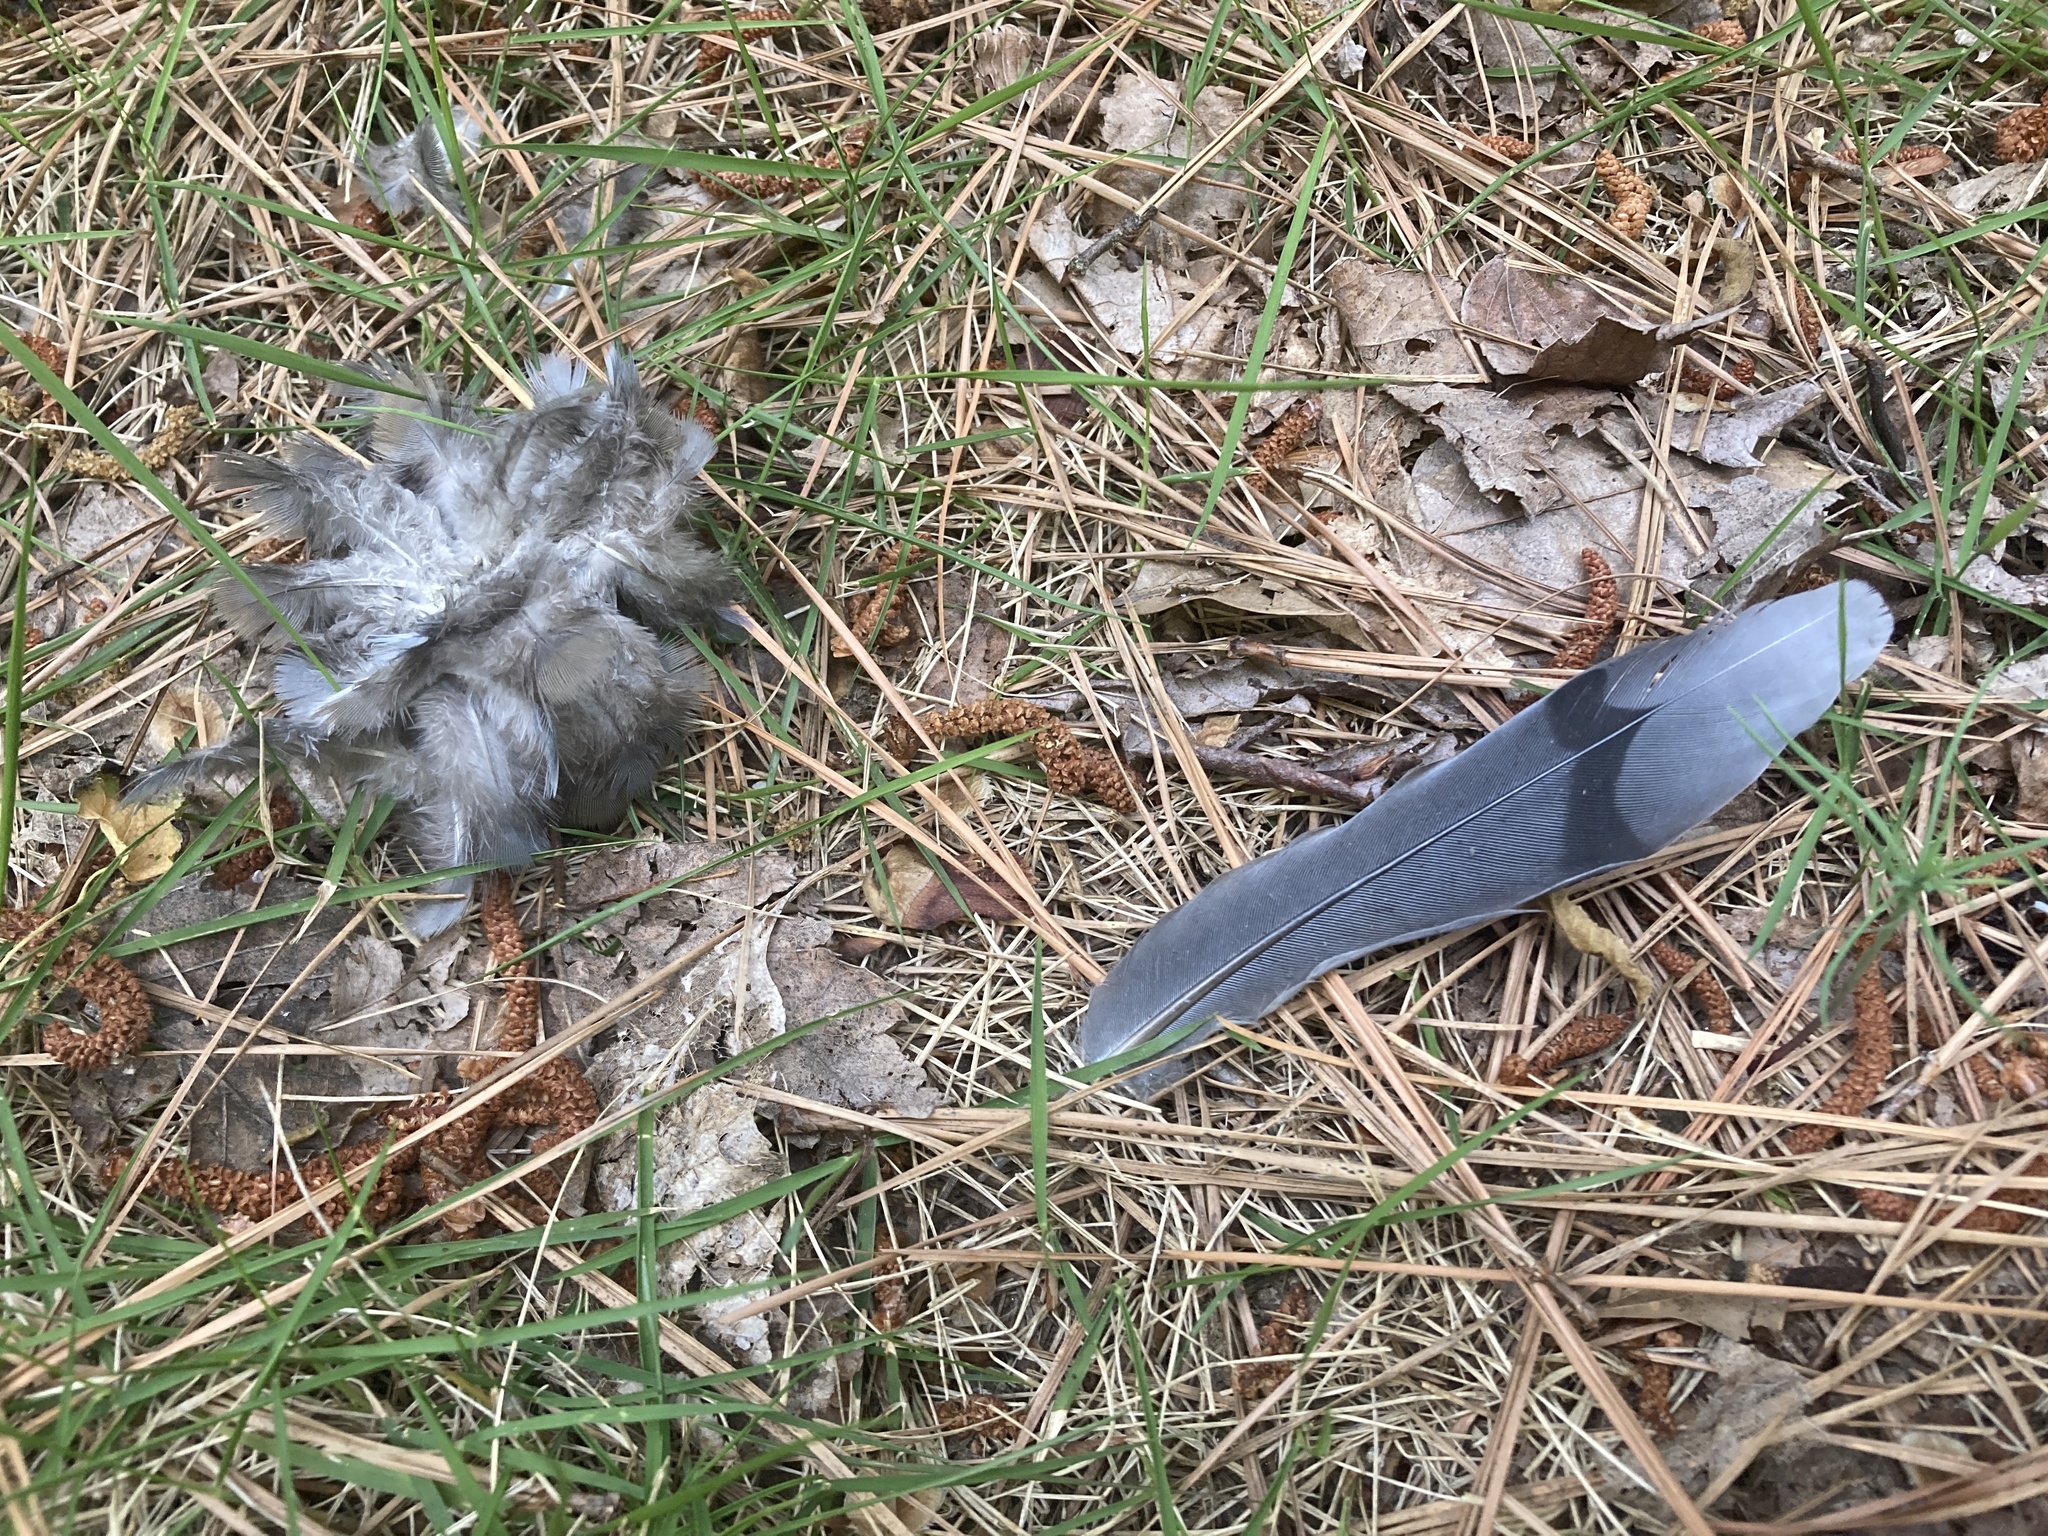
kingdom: Animalia
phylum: Chordata
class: Aves
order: Columbiformes
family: Columbidae
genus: Zenaida
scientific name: Zenaida macroura
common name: Mourning dove
